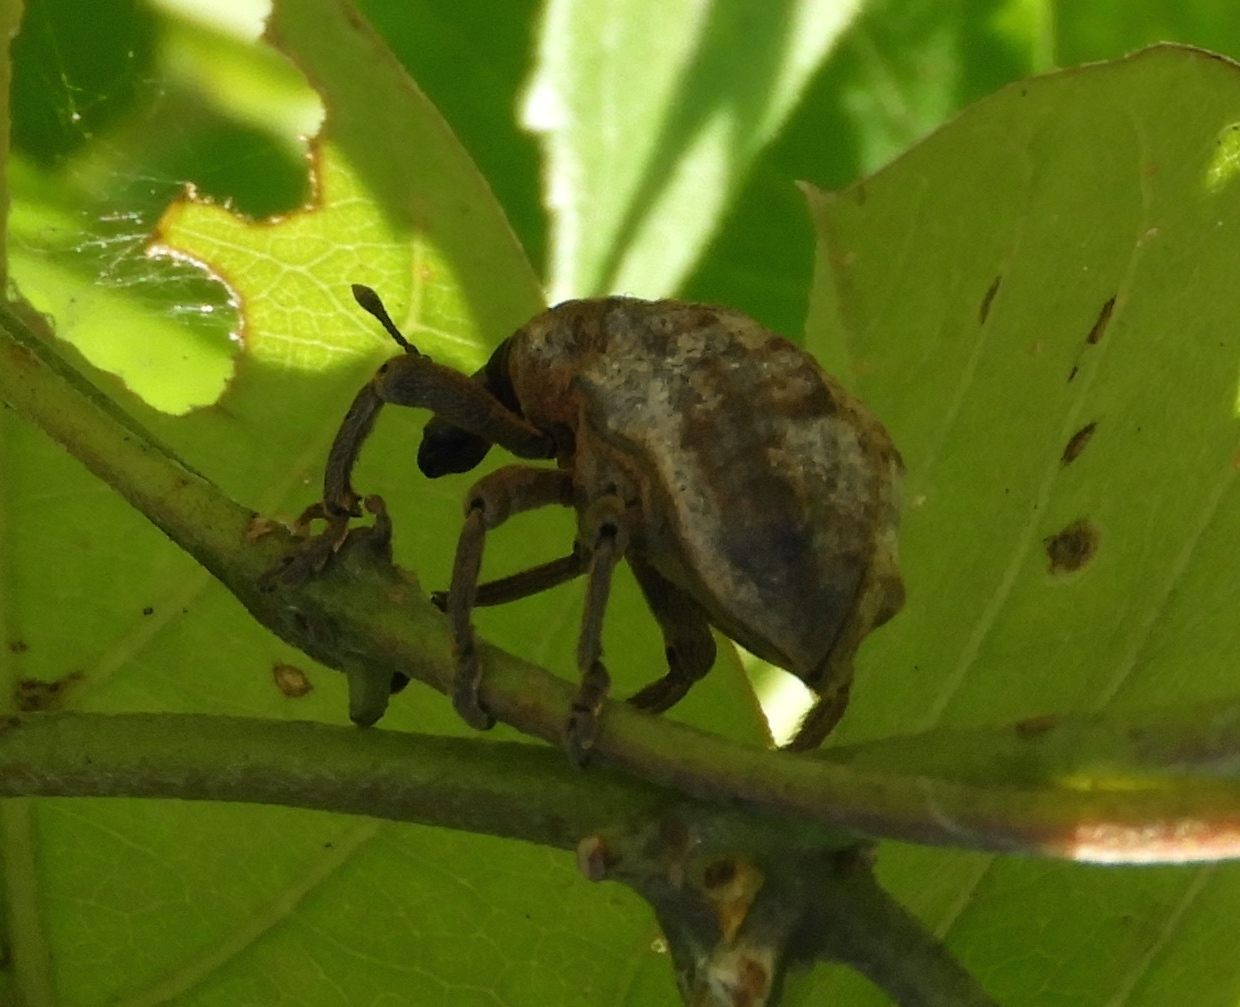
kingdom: Animalia
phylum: Arthropoda
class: Insecta
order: Coleoptera
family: Curculionidae
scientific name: Curculionidae
